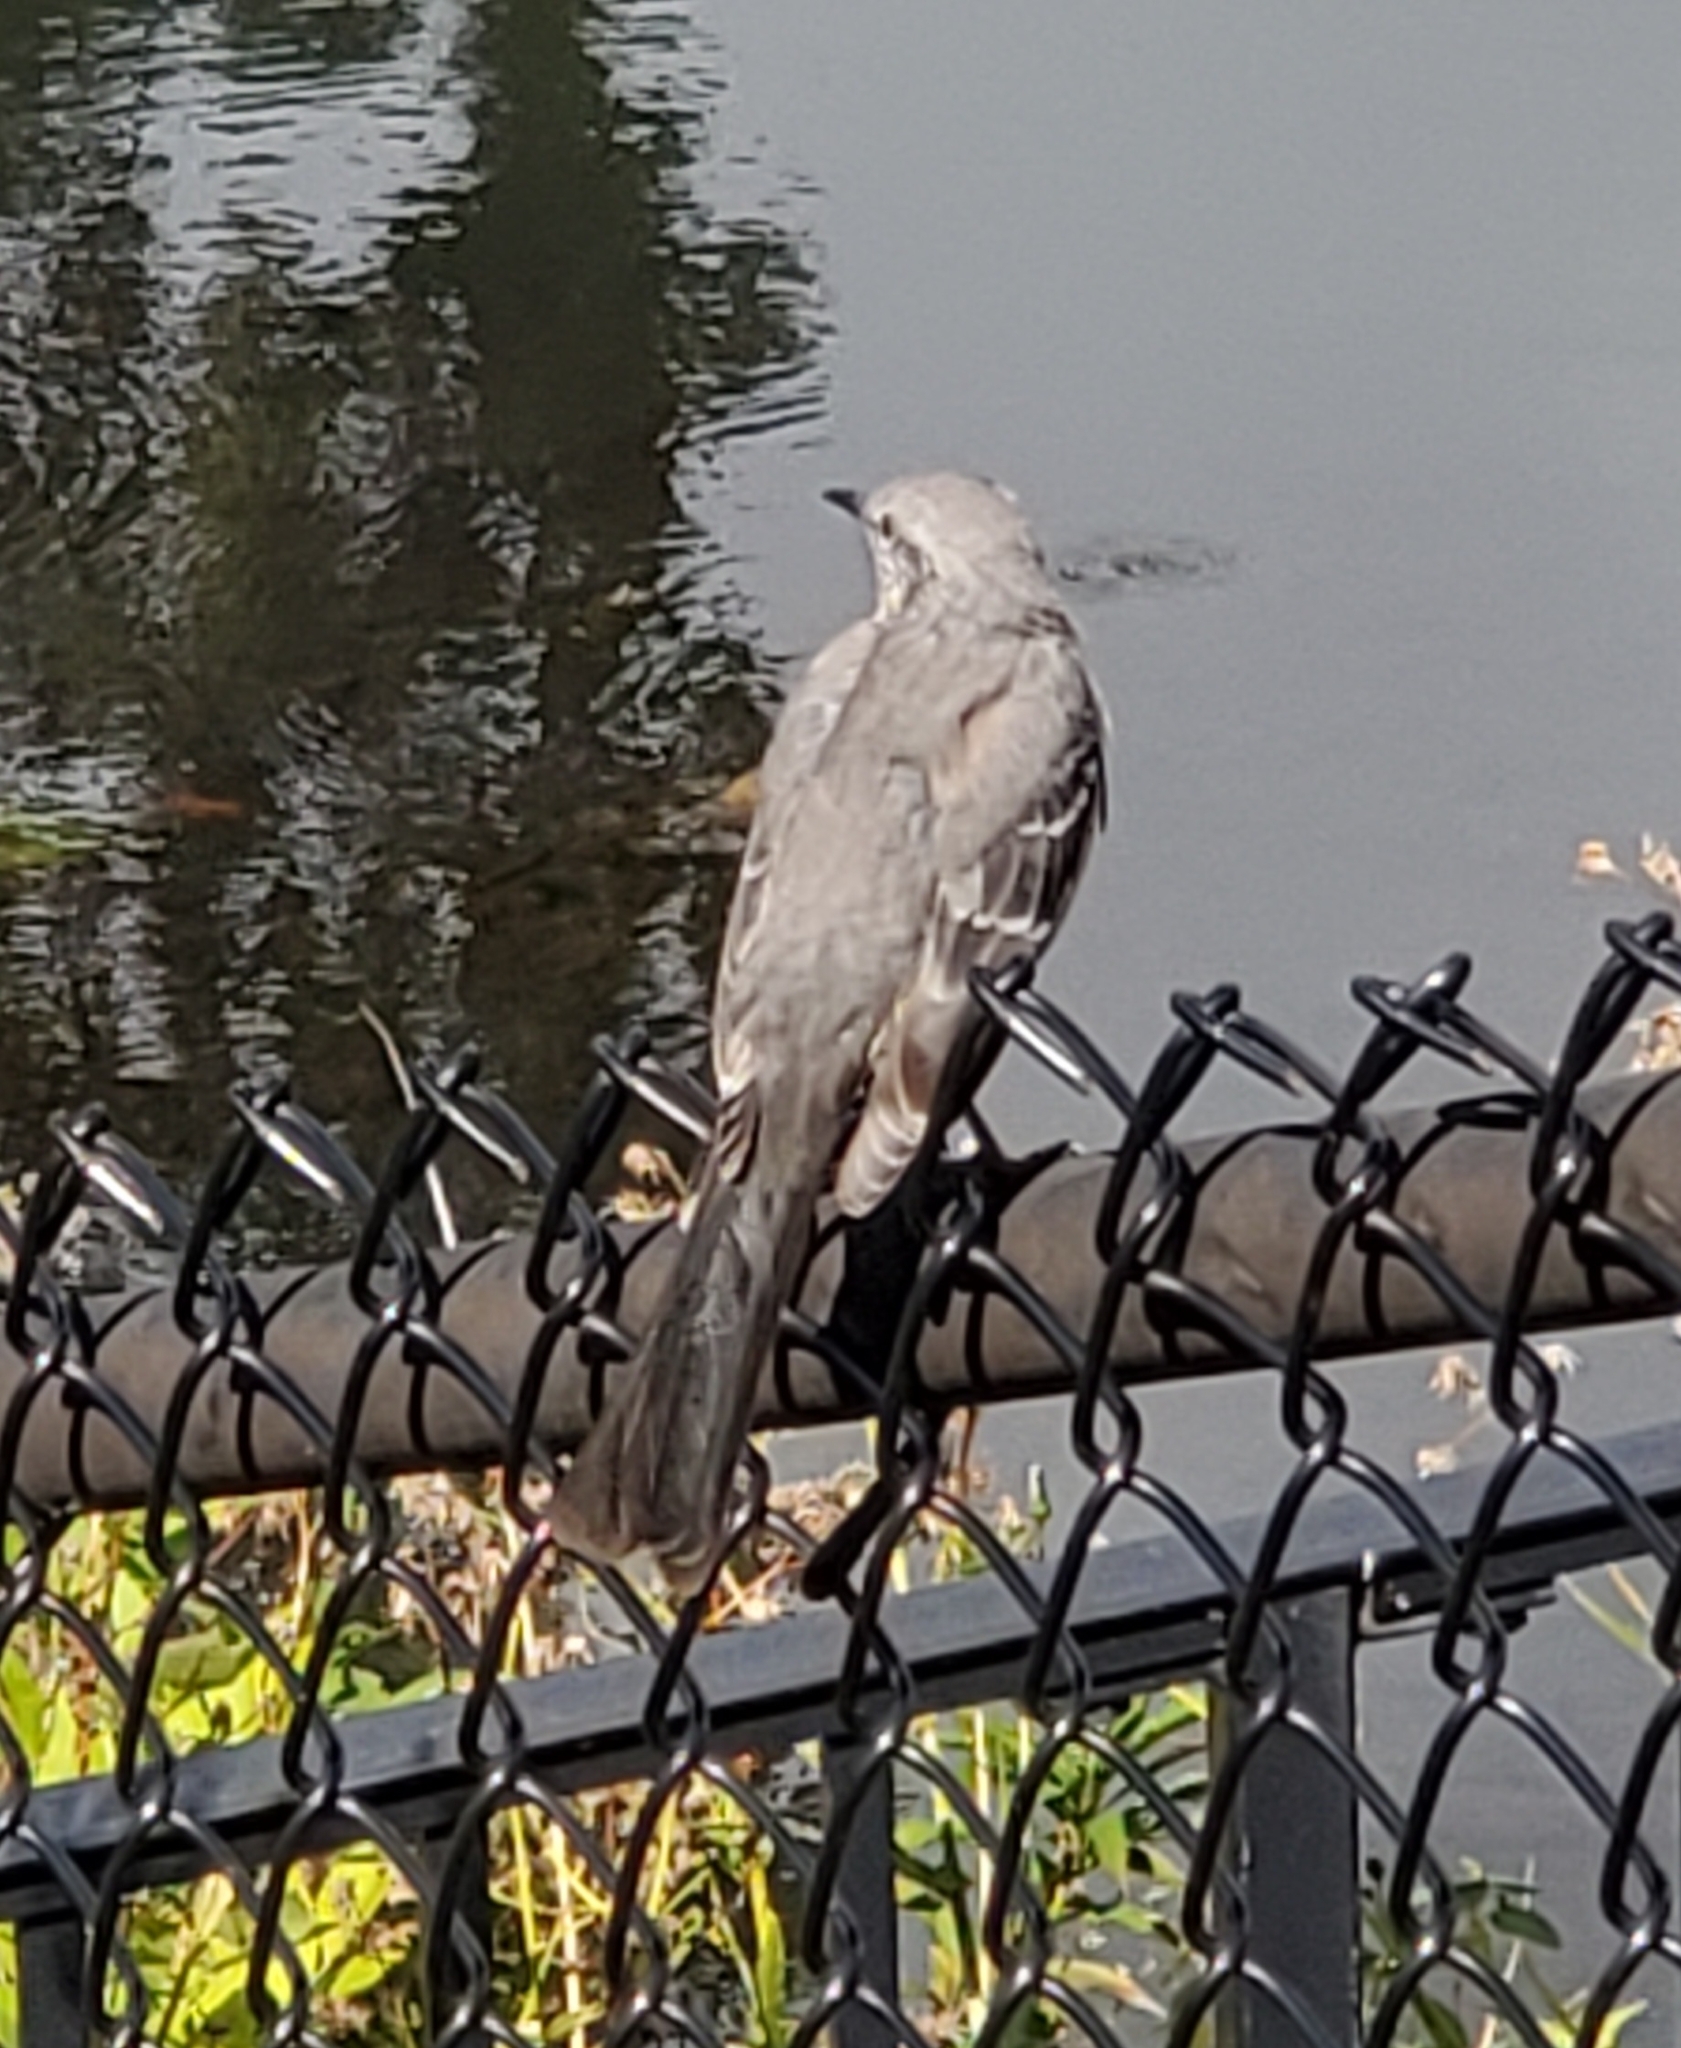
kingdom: Animalia
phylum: Chordata
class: Aves
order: Passeriformes
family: Mimidae
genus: Mimus
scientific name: Mimus polyglottos
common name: Northern mockingbird
